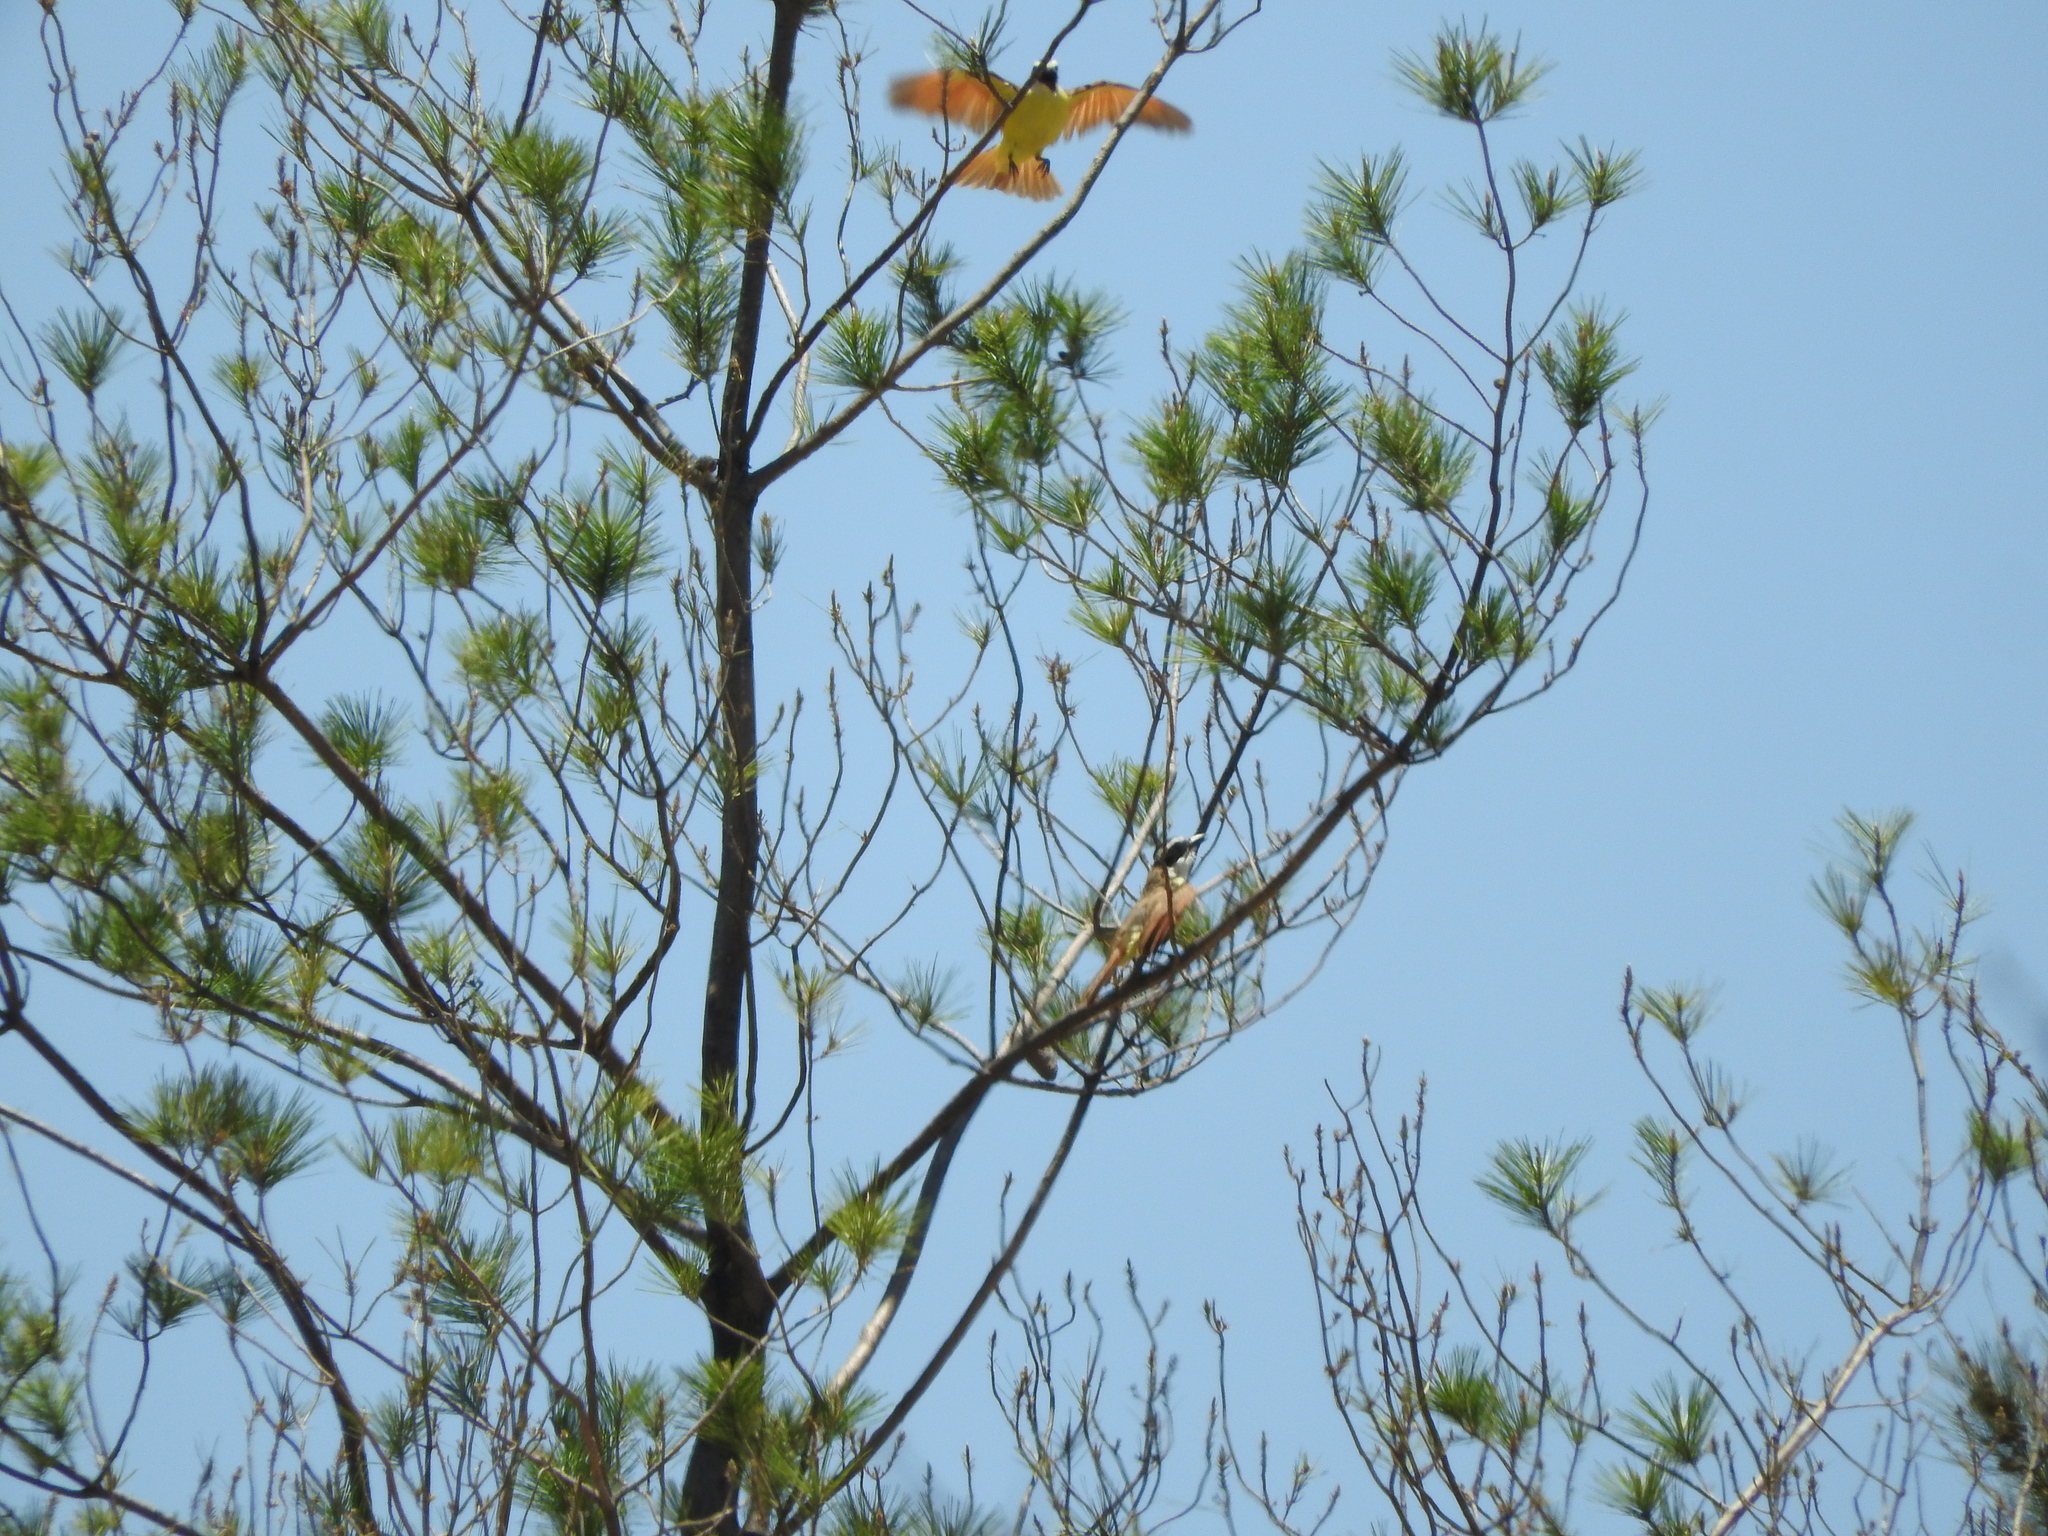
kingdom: Animalia
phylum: Chordata
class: Aves
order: Passeriformes
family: Tyrannidae
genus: Pitangus
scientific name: Pitangus sulphuratus
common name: Great kiskadee
